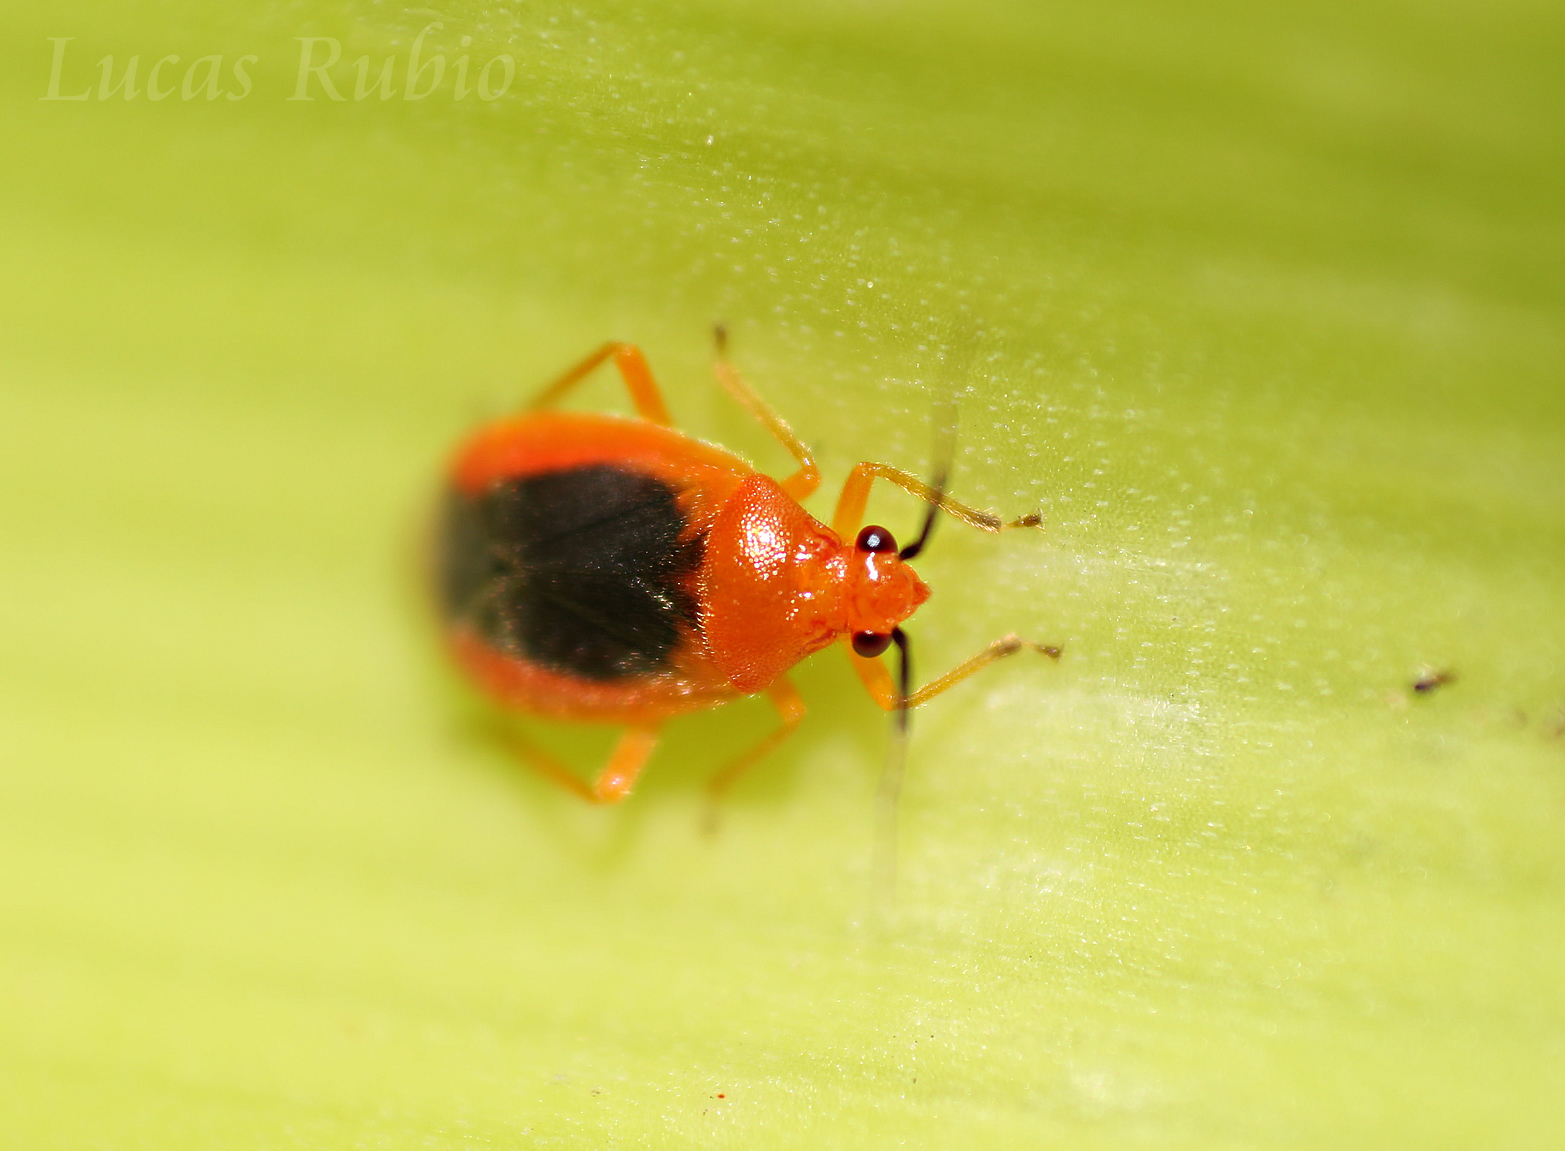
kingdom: Animalia
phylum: Arthropoda
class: Insecta
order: Hemiptera
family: Miridae
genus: Tenthecoris
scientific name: Tenthecoris bicolor
